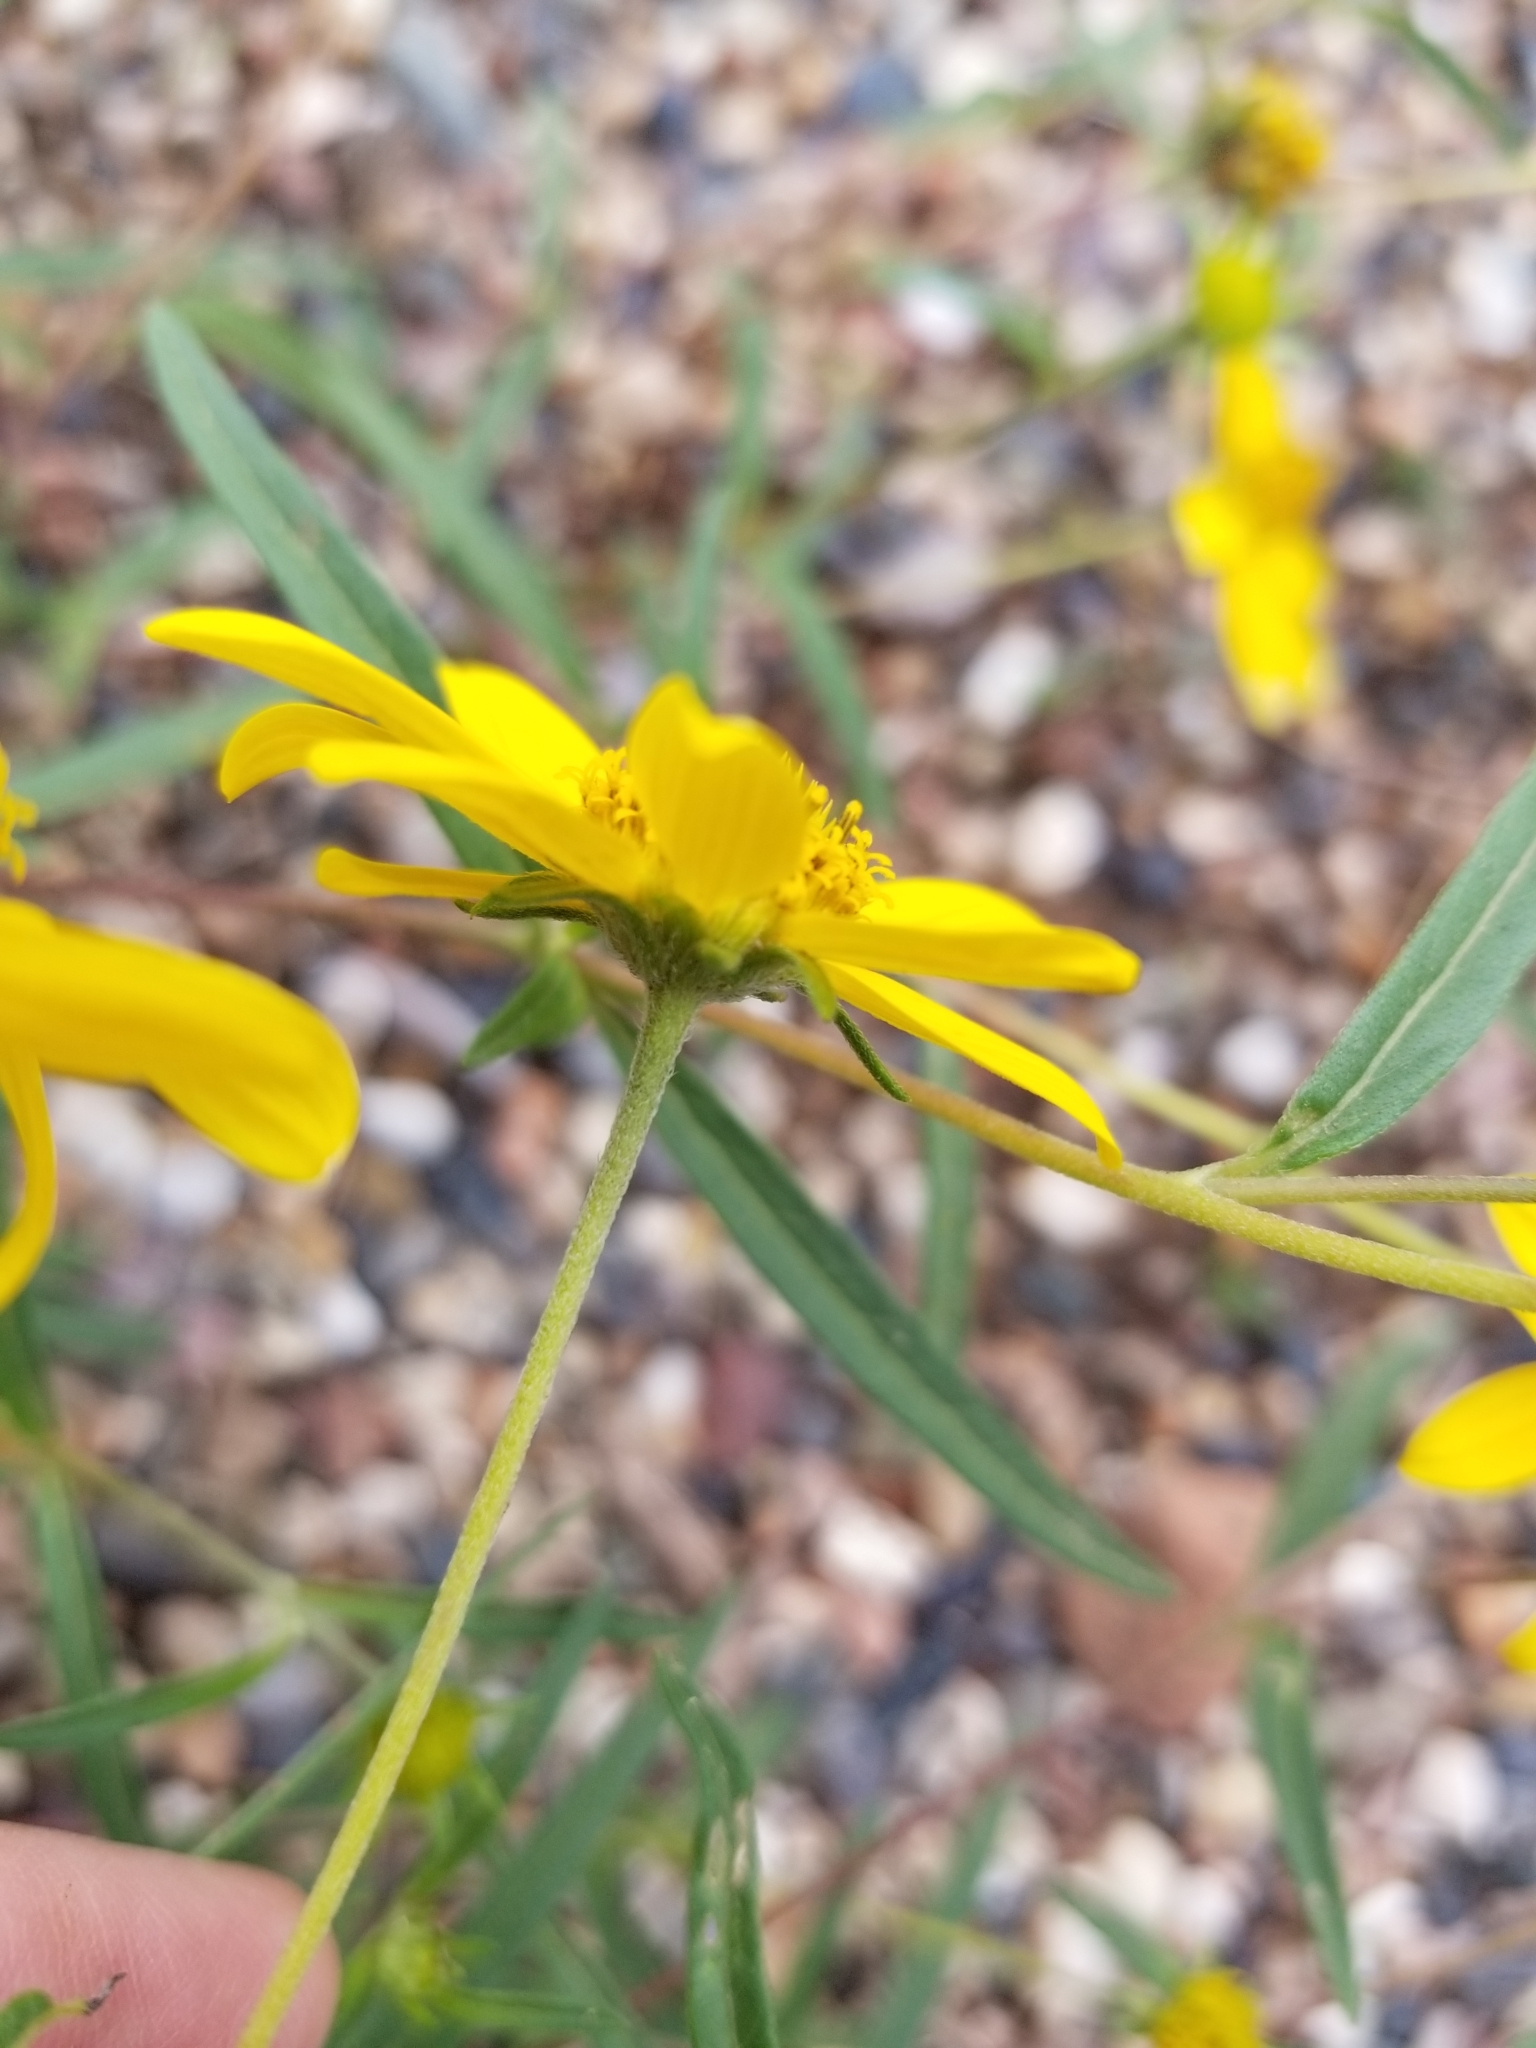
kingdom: Plantae
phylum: Tracheophyta
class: Magnoliopsida
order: Asterales
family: Asteraceae
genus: Heliomeris
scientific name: Heliomeris multiflora
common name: Showy goldeneye
